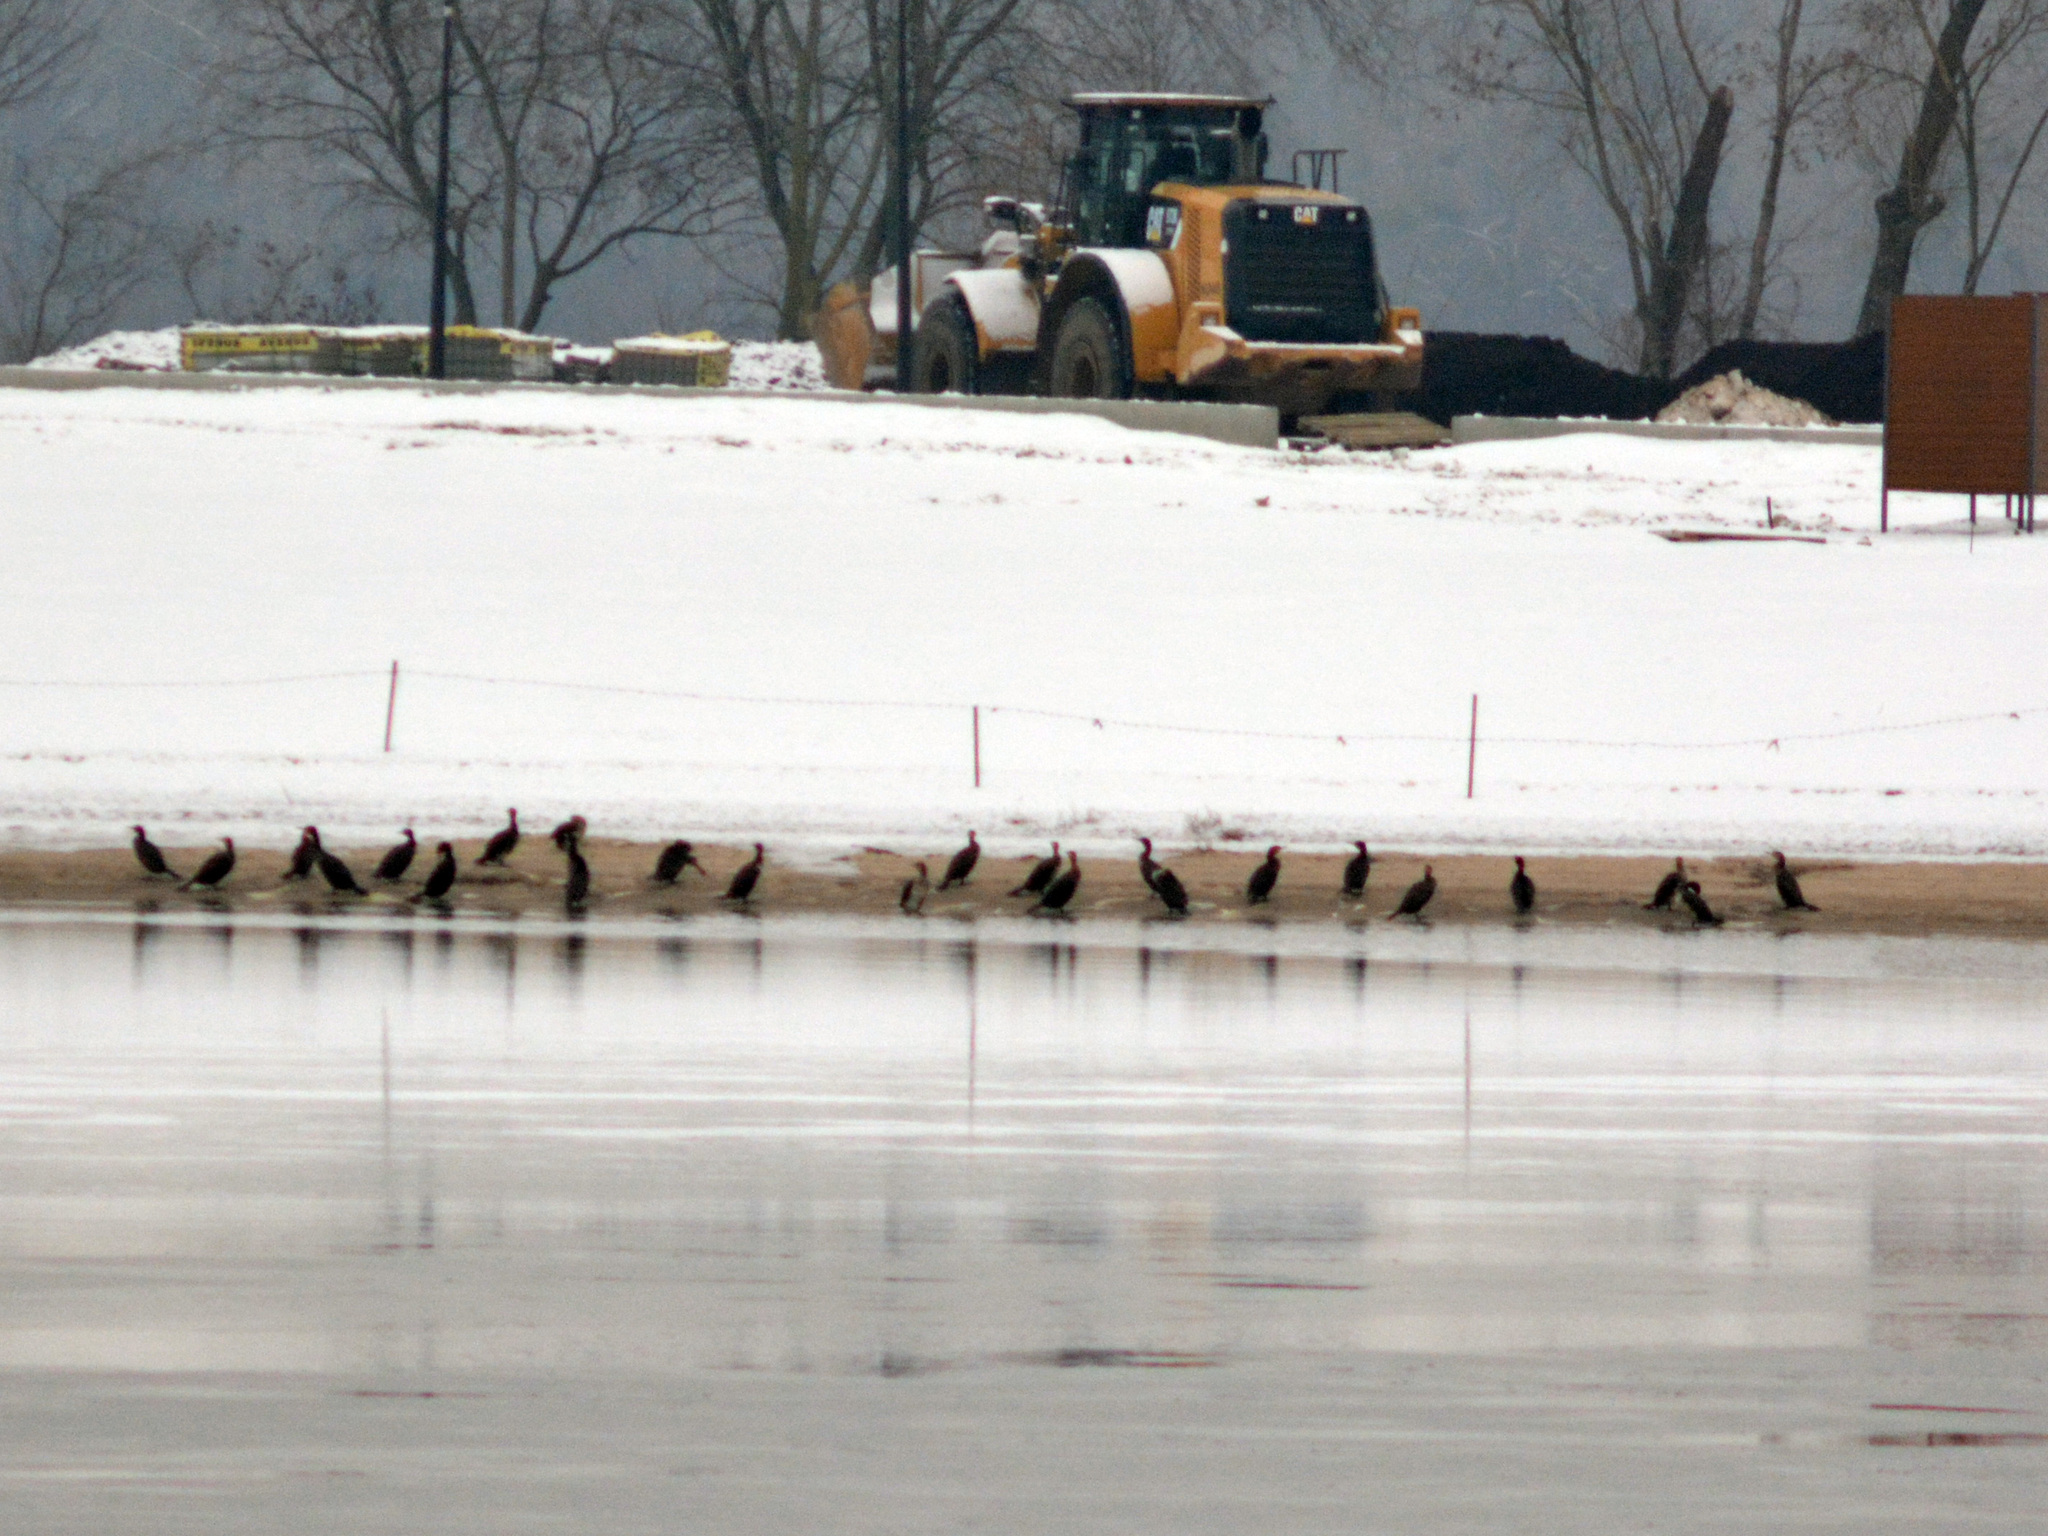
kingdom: Animalia
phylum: Chordata
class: Aves
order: Suliformes
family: Phalacrocoracidae
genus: Phalacrocorax
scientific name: Phalacrocorax carbo
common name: Great cormorant
